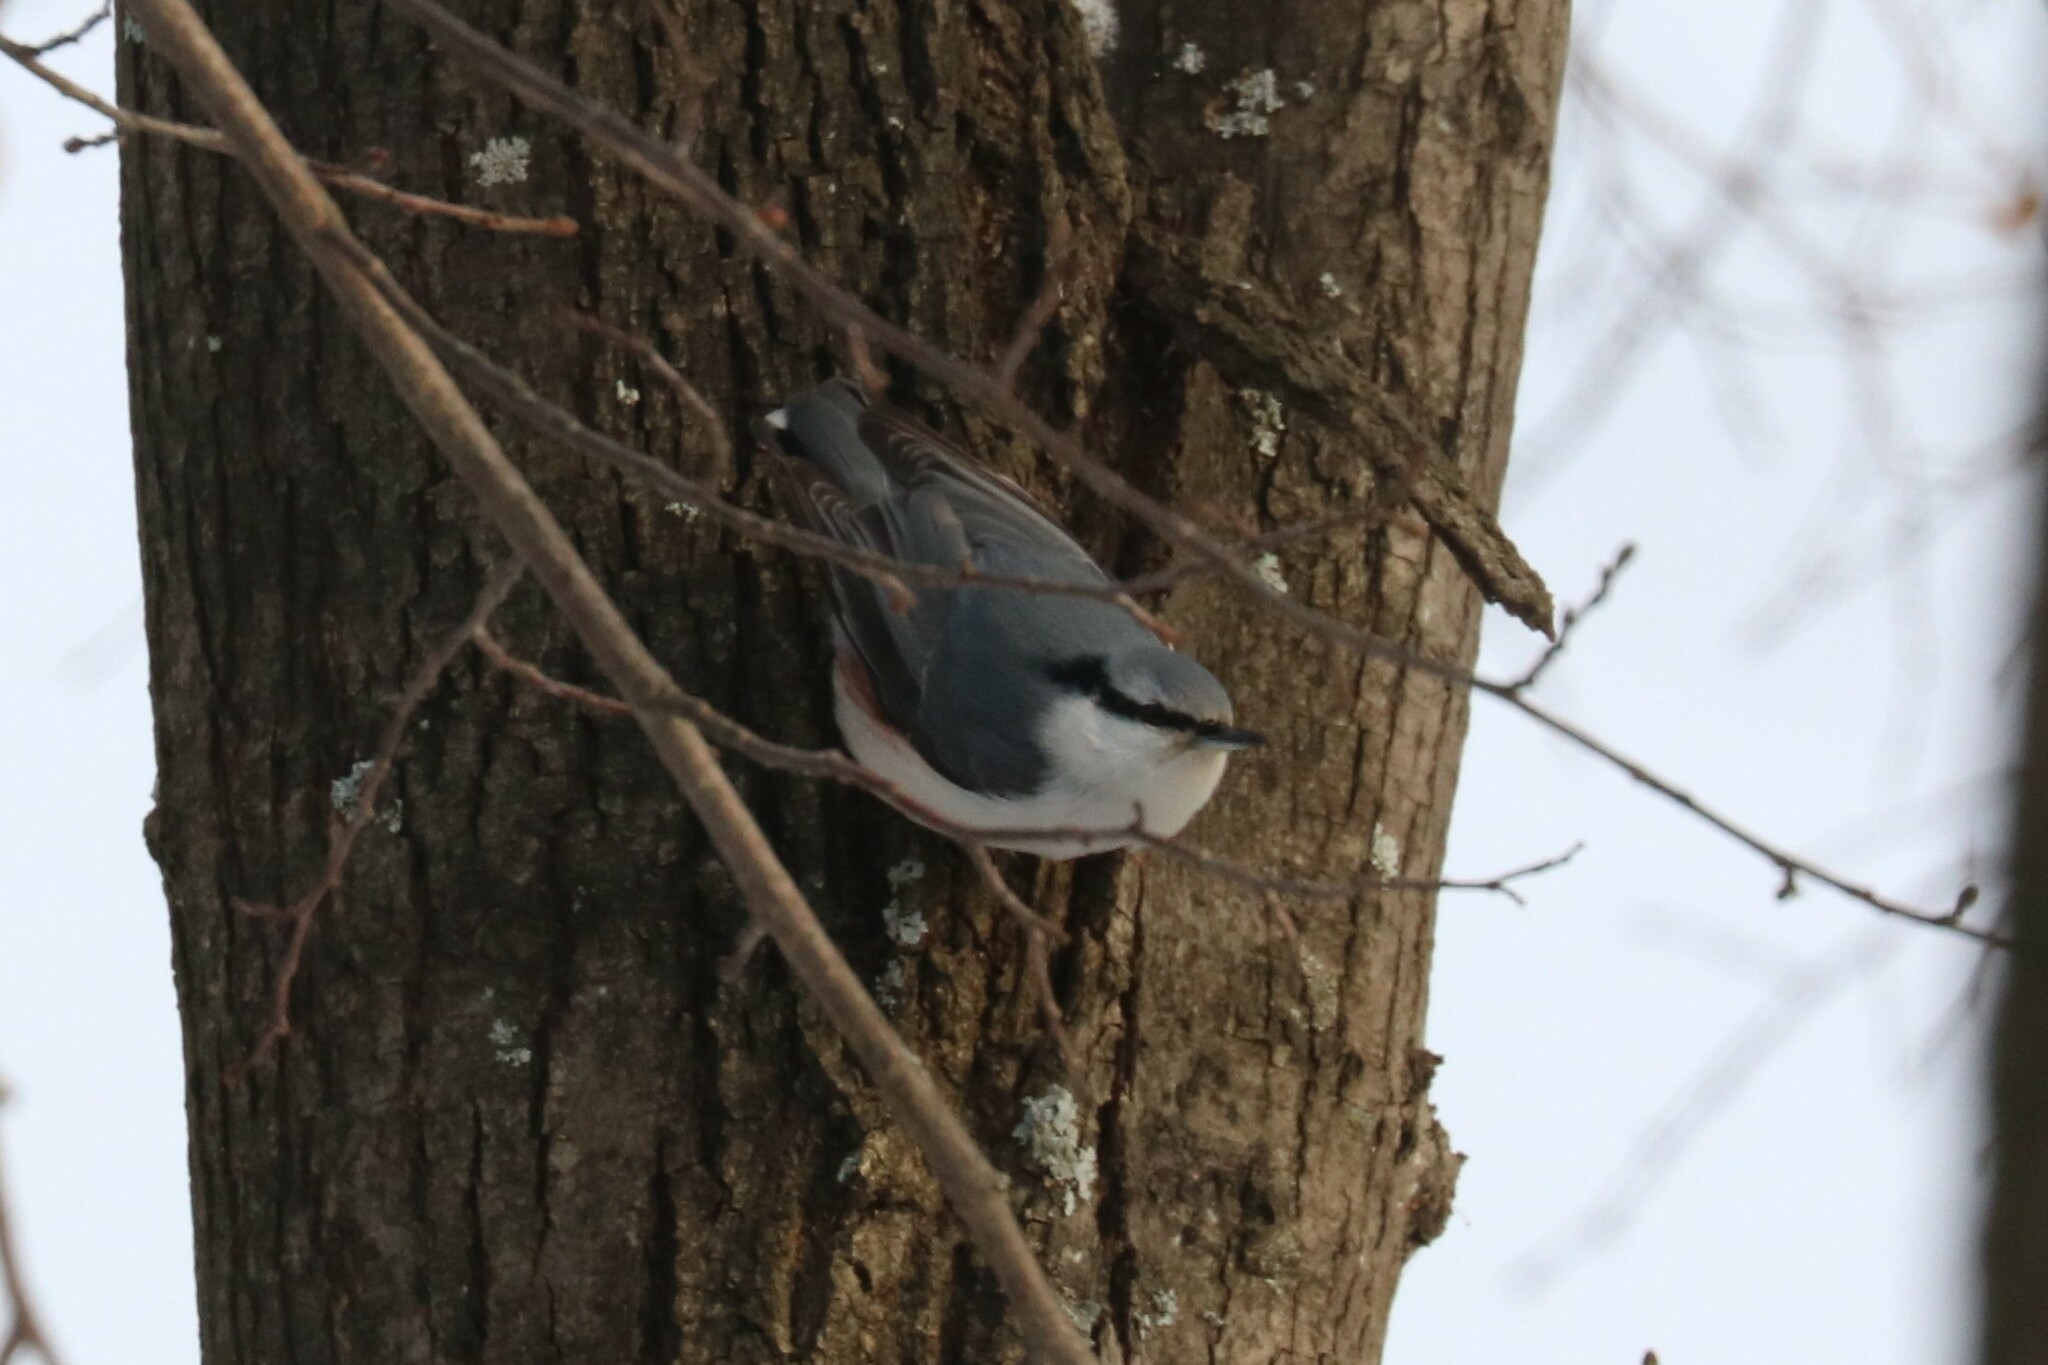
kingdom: Animalia
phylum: Chordata
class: Aves
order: Passeriformes
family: Sittidae
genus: Sitta
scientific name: Sitta europaea
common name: Eurasian nuthatch
